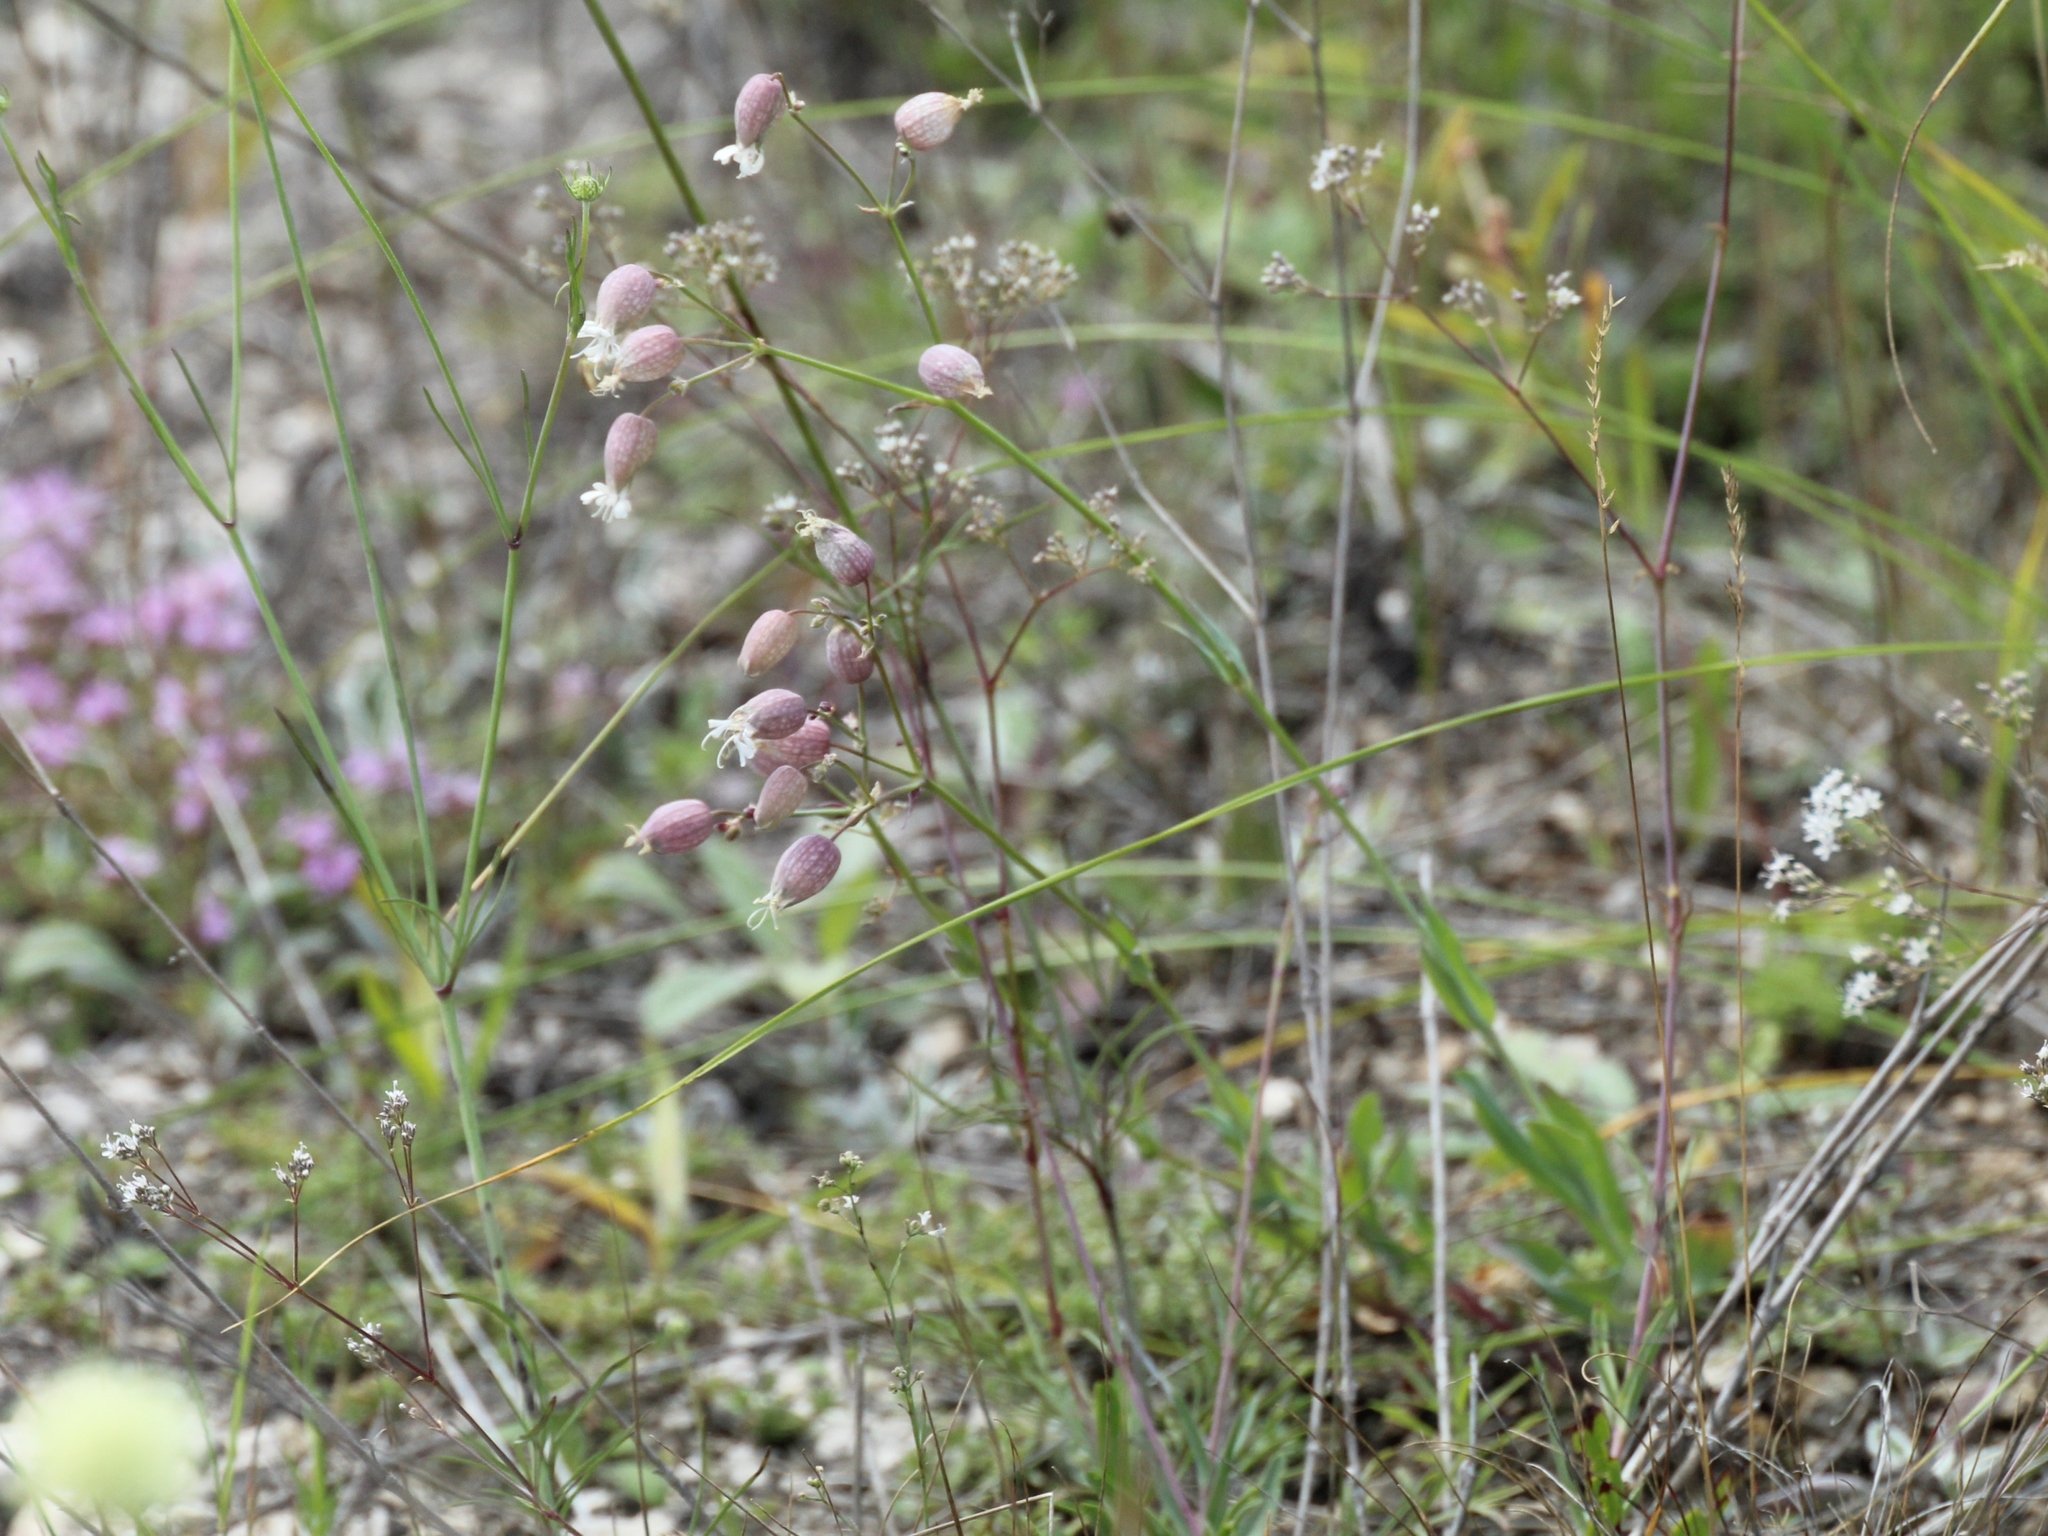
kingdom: Plantae
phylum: Tracheophyta
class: Magnoliopsida
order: Caryophyllales
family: Caryophyllaceae
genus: Silene
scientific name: Silene vulgaris
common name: Bladder campion
